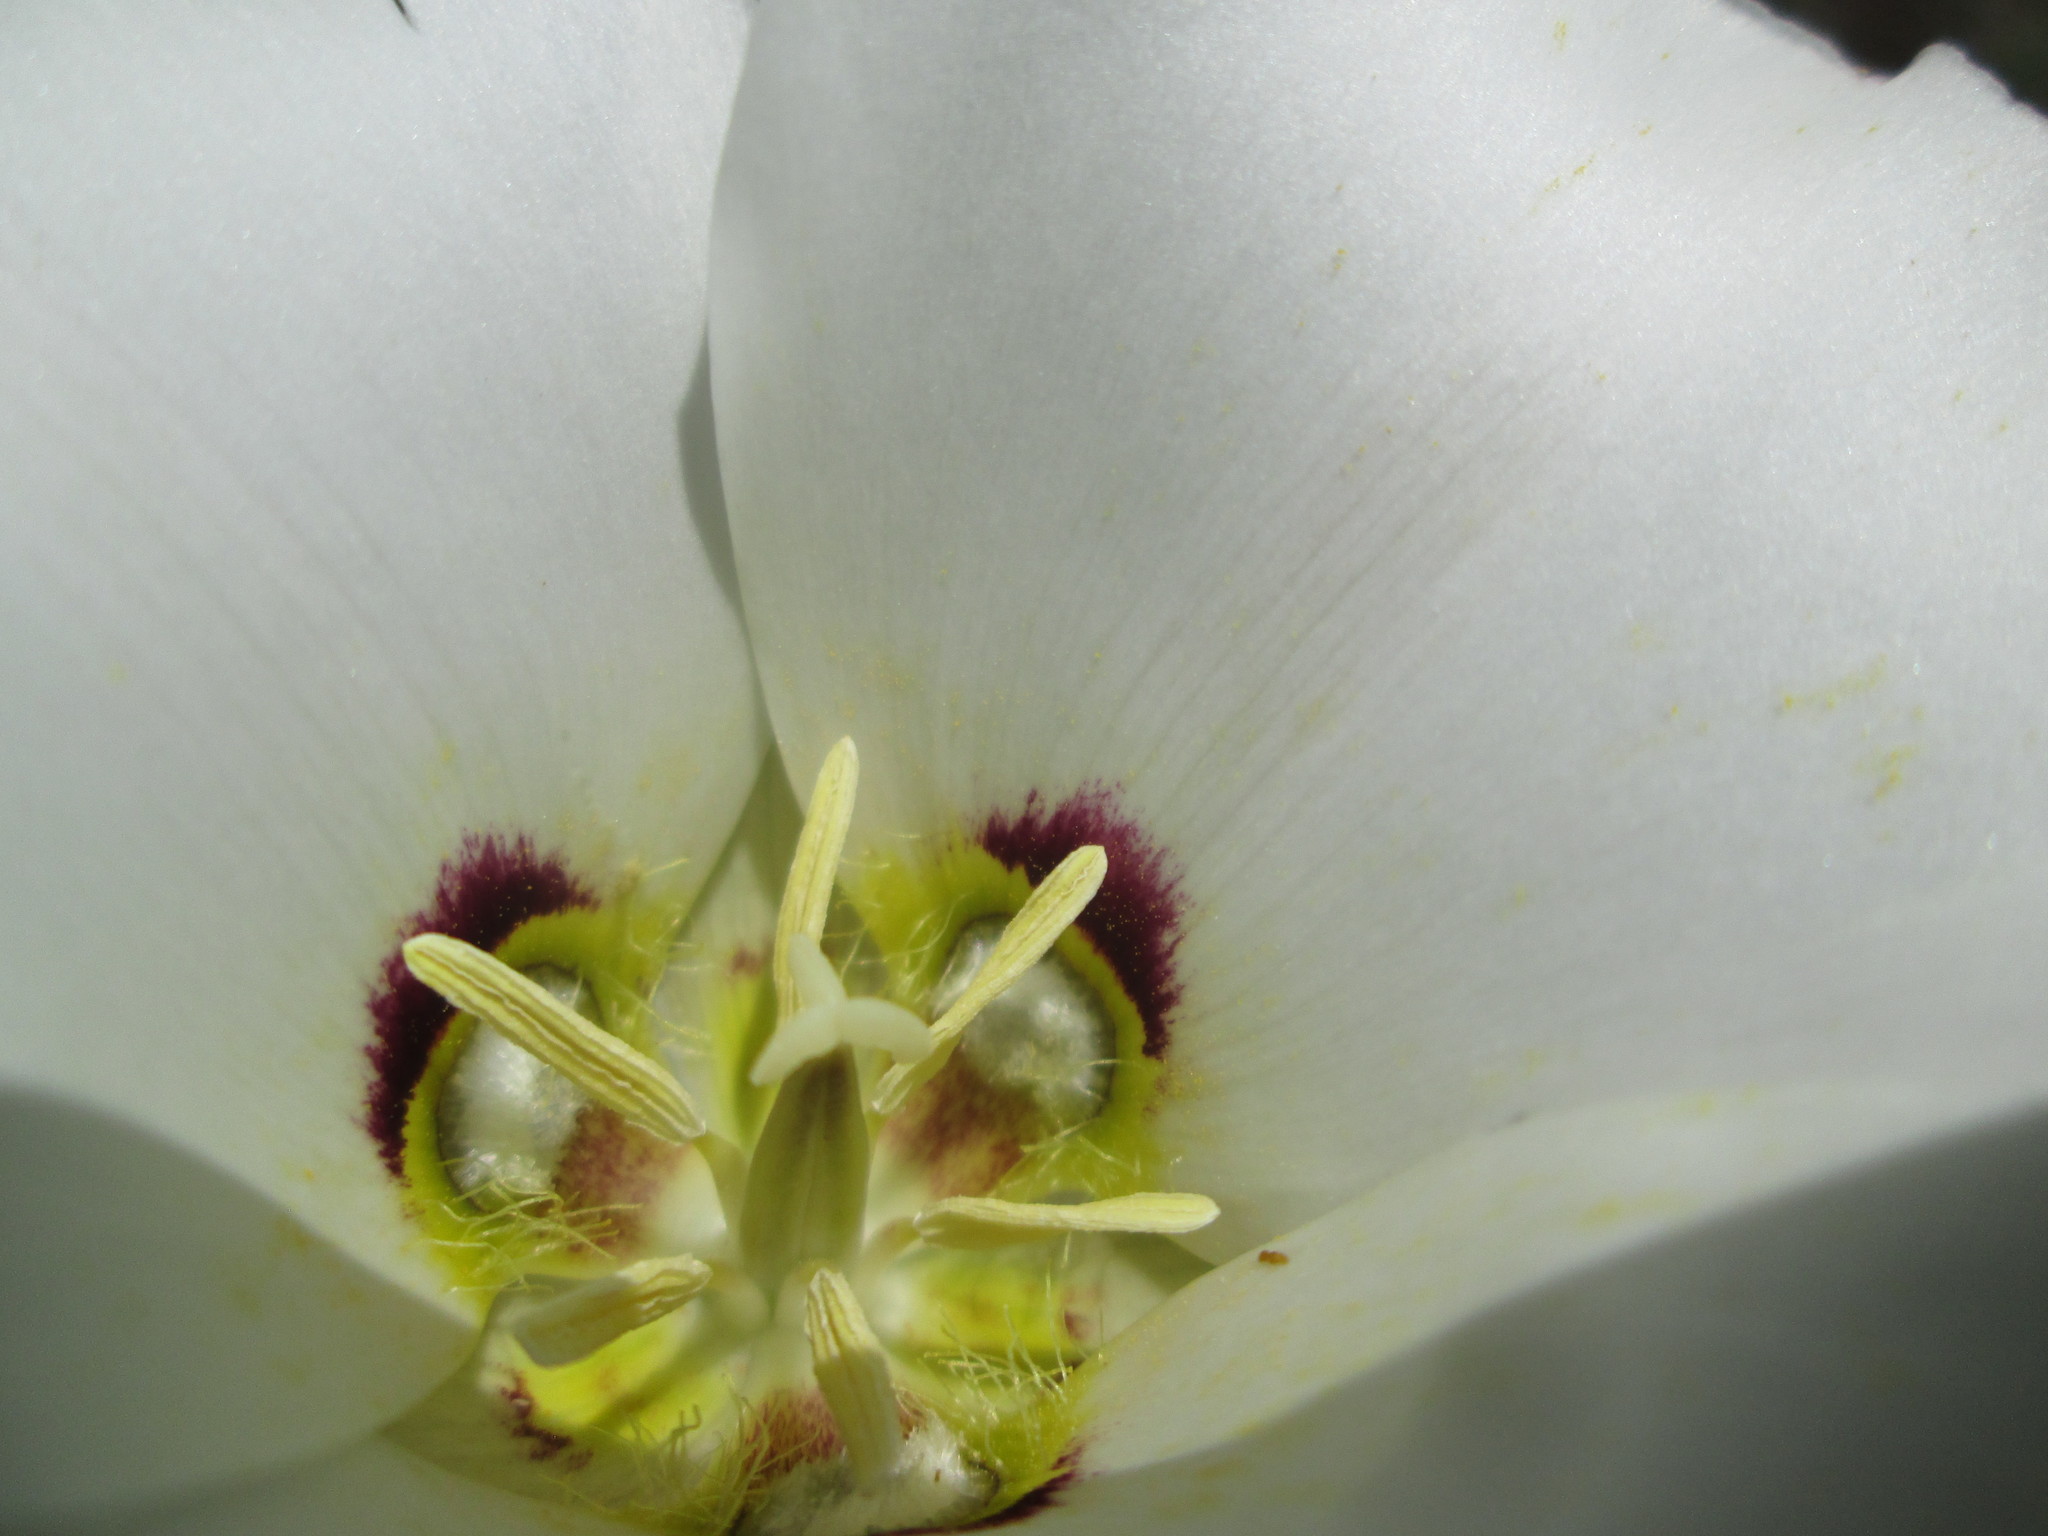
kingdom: Plantae
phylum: Tracheophyta
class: Liliopsida
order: Liliales
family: Liliaceae
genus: Calochortus
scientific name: Calochortus nuttallii
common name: Sego-lily
